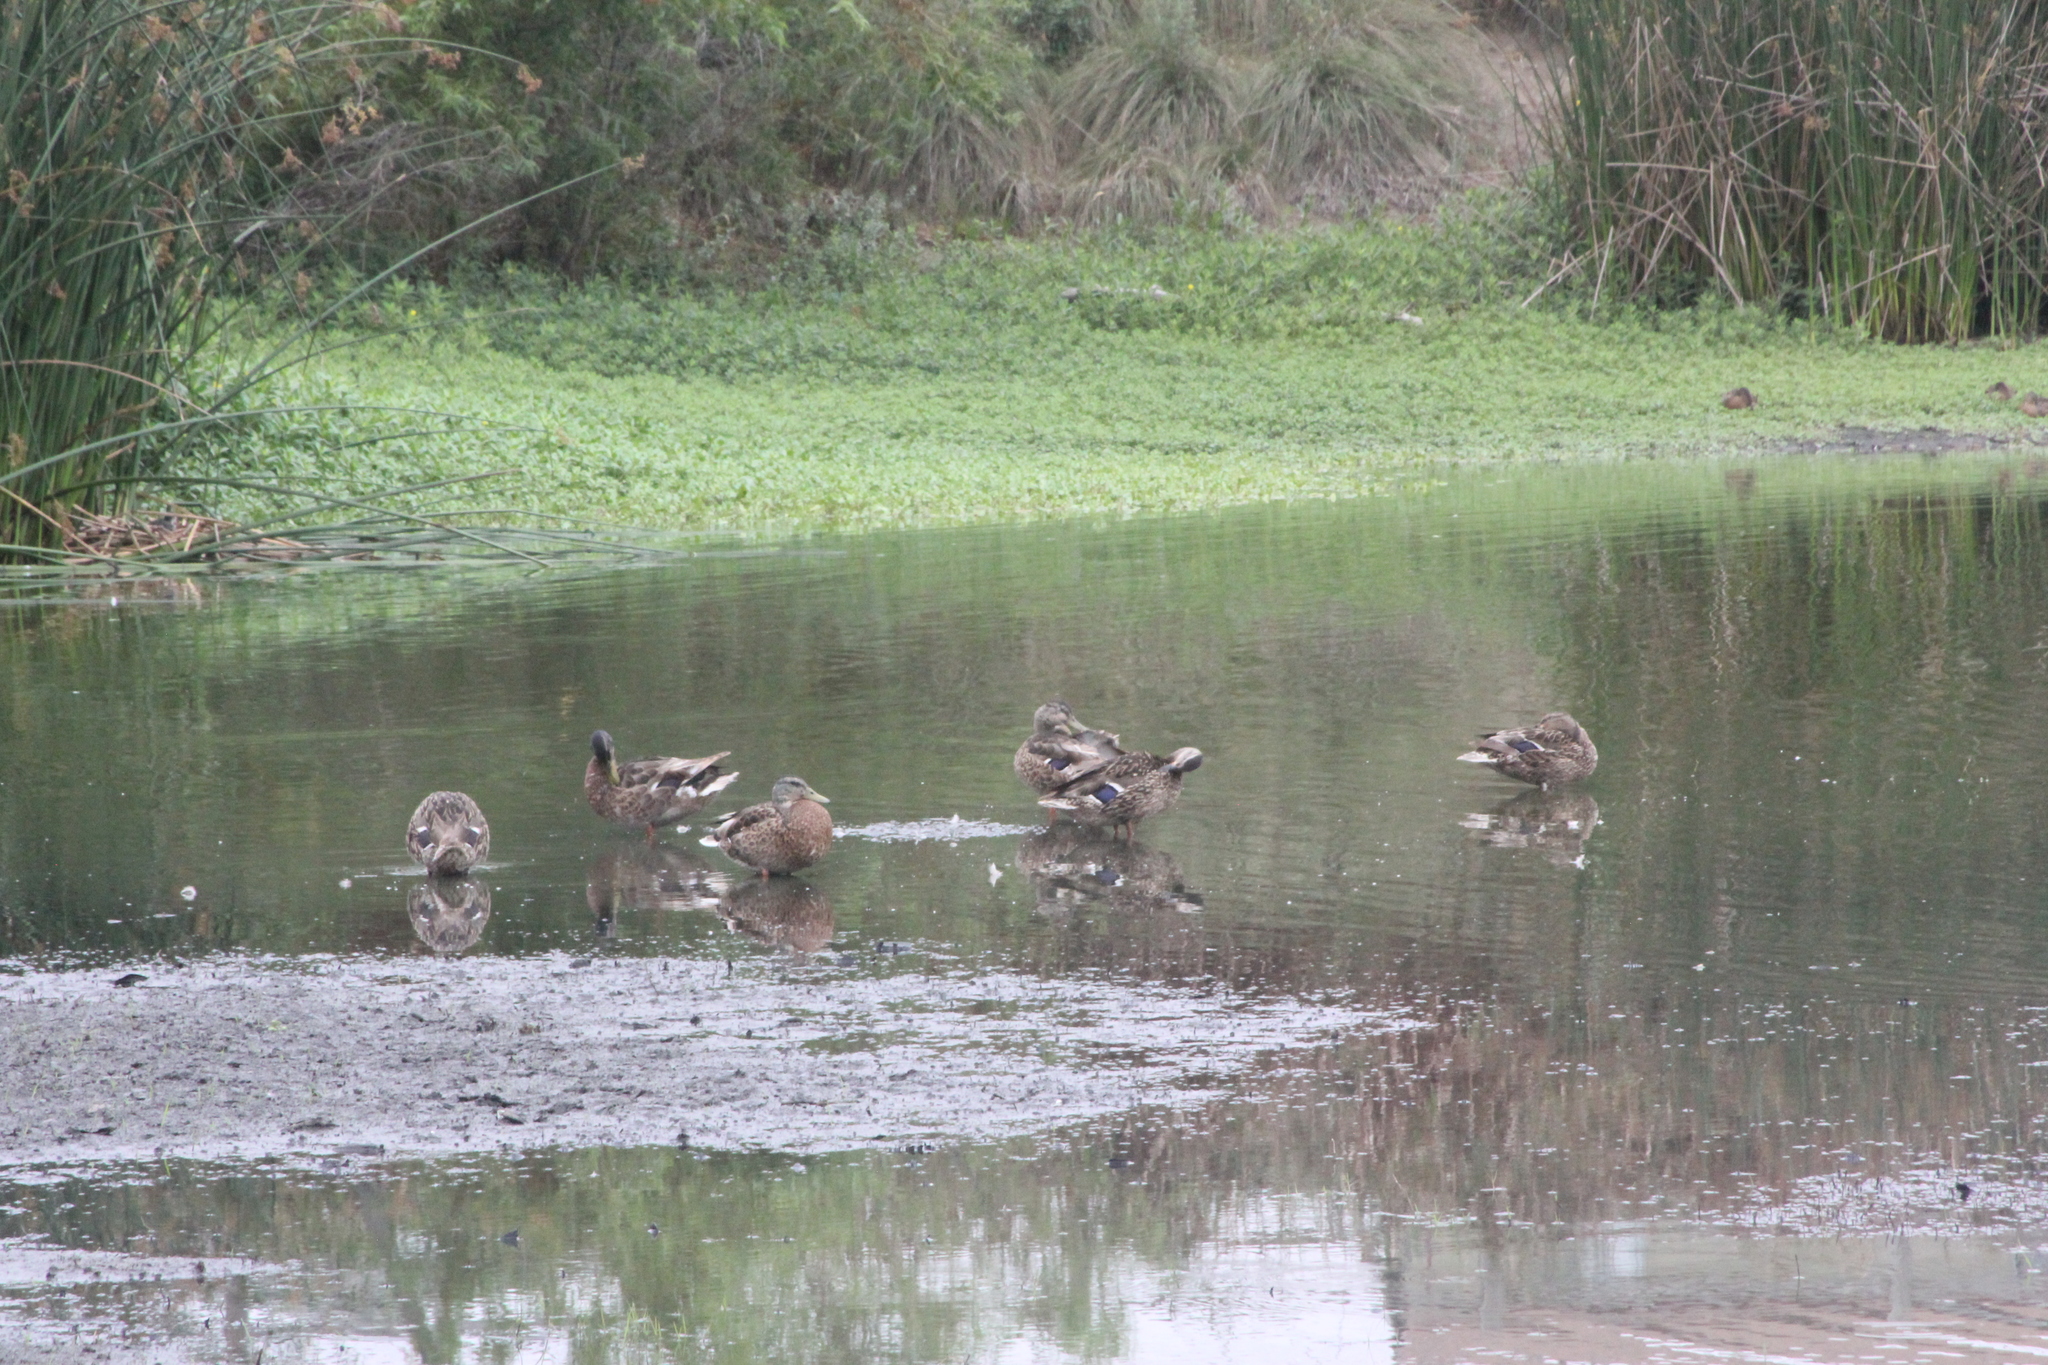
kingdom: Animalia
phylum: Chordata
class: Aves
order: Anseriformes
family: Anatidae
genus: Anas
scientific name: Anas platyrhynchos
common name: Mallard
